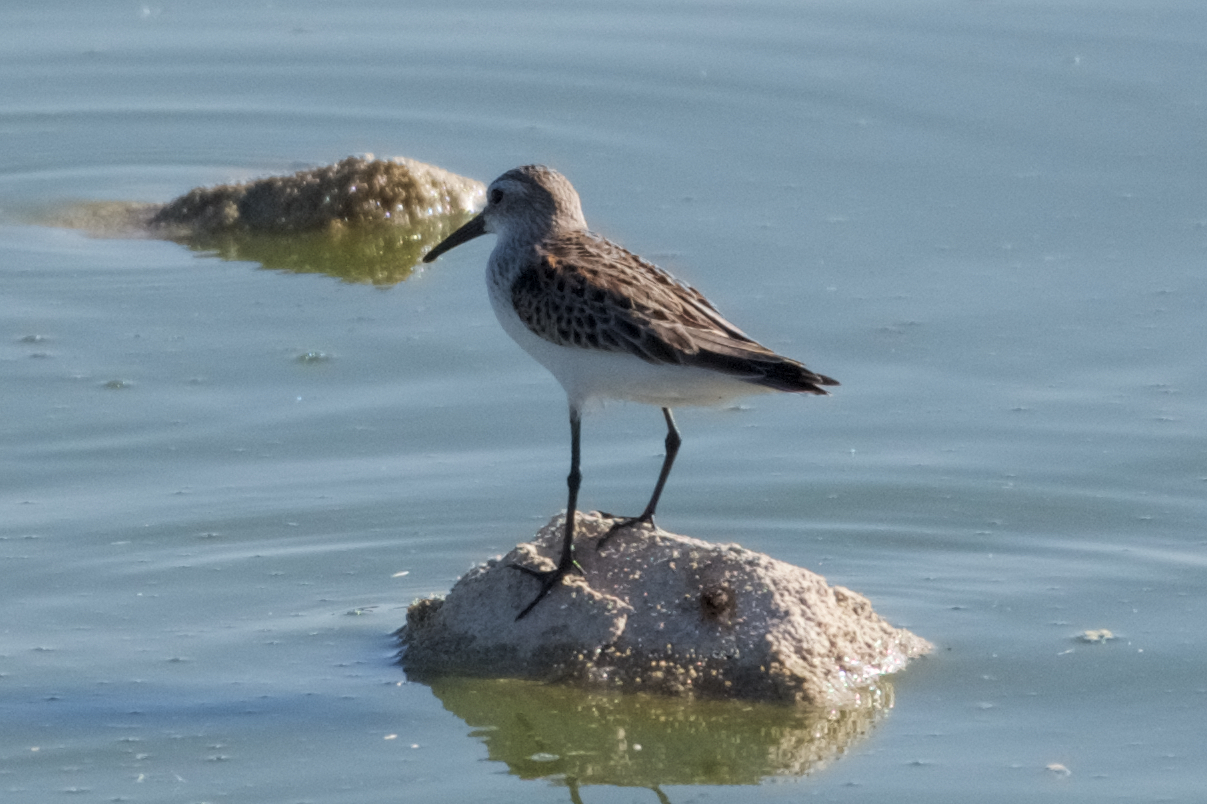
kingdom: Animalia
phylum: Chordata
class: Aves
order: Charadriiformes
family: Scolopacidae
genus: Calidris
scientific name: Calidris mauri
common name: Western sandpiper
